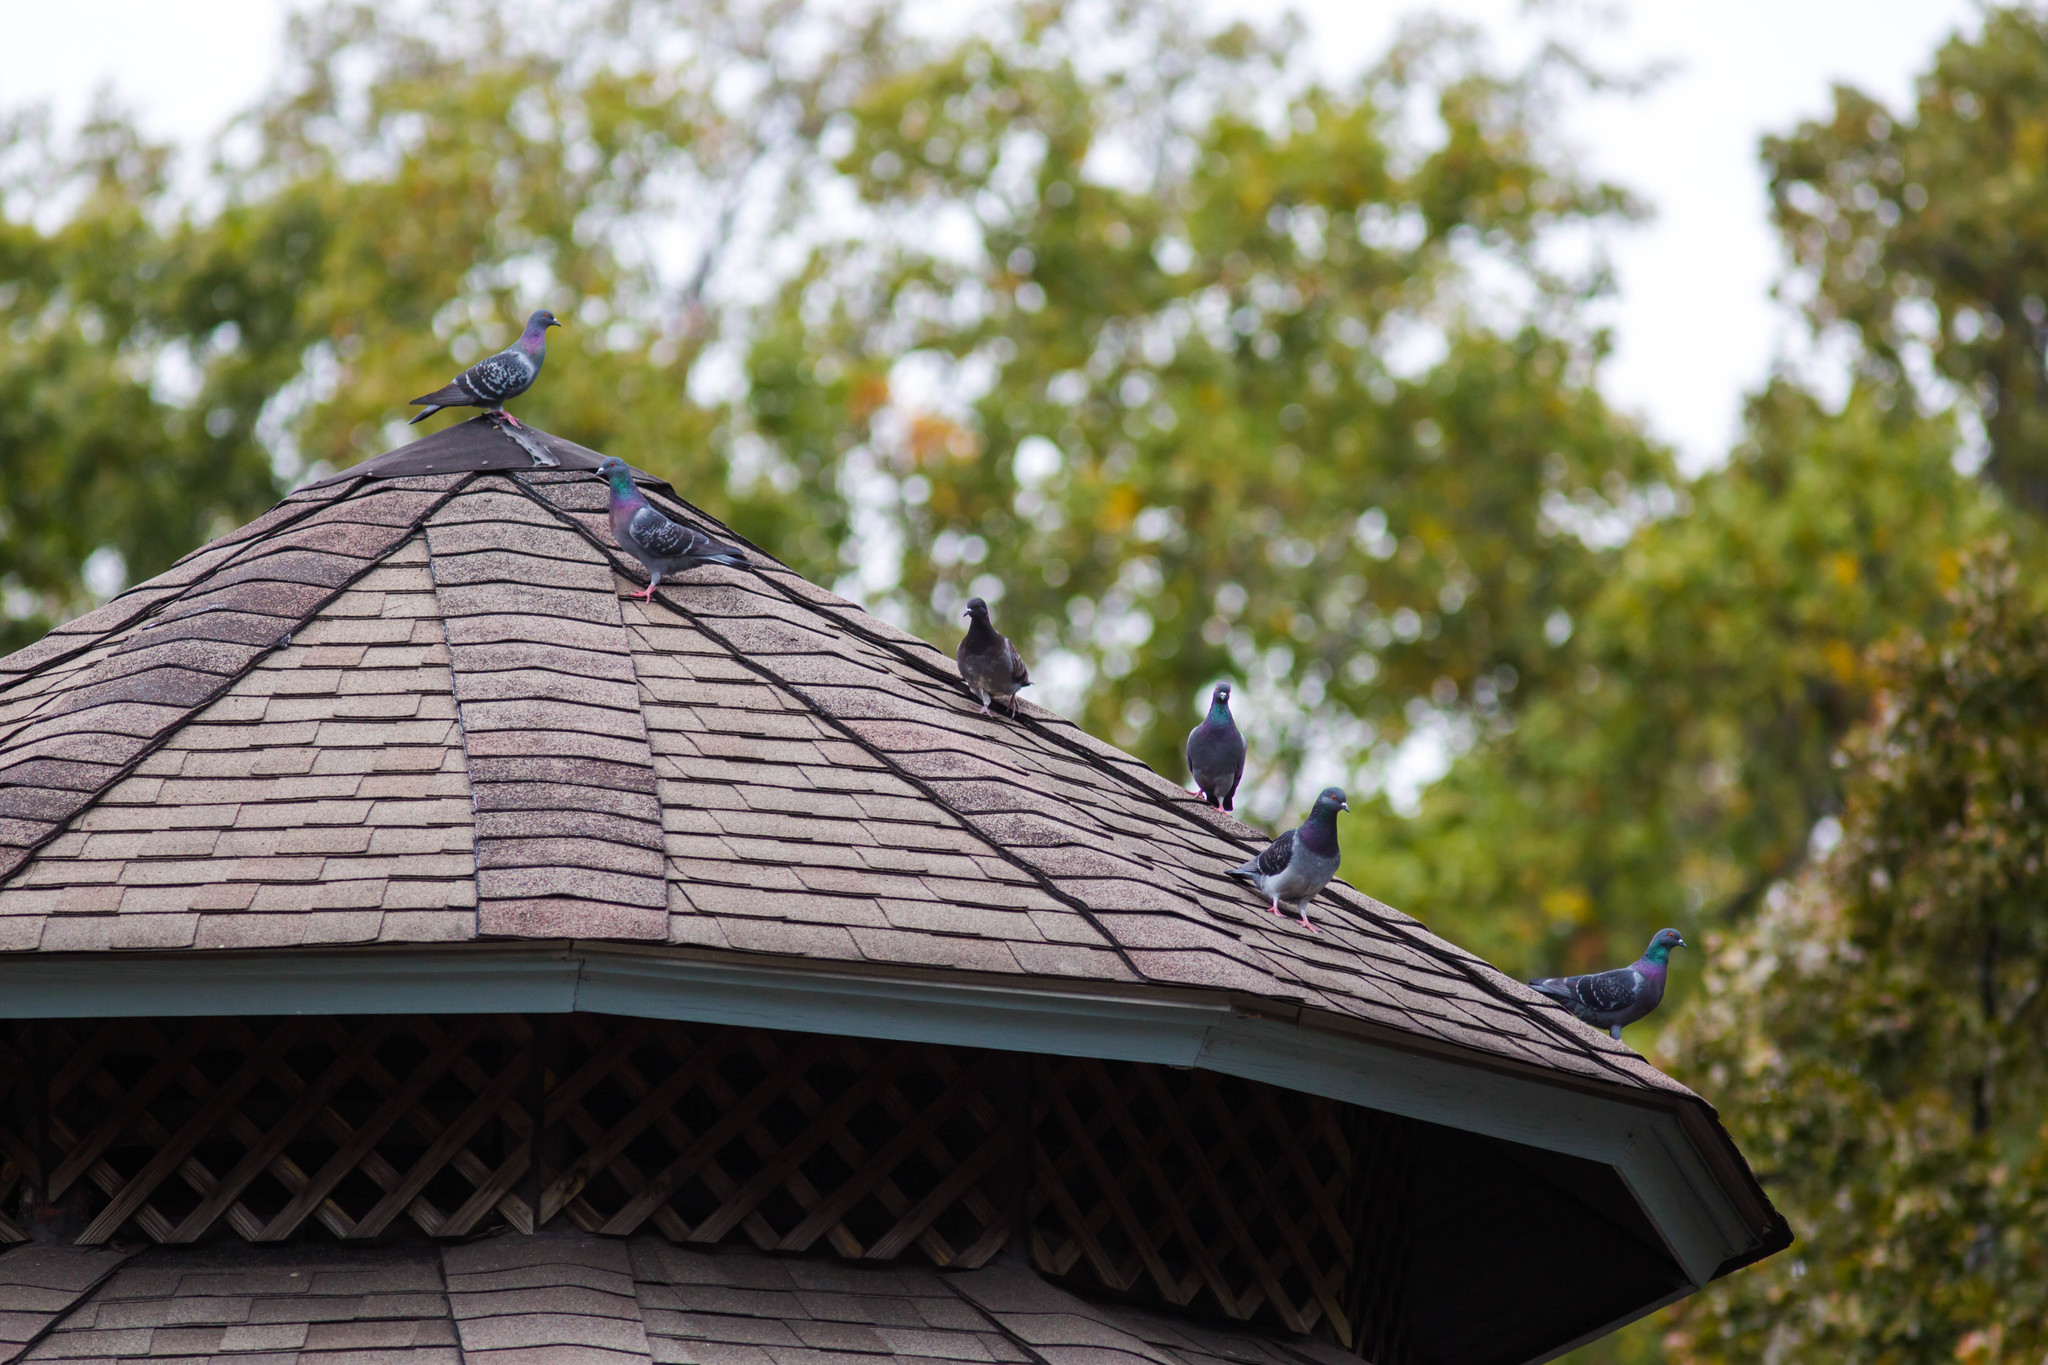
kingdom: Animalia
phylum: Chordata
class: Aves
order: Columbiformes
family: Columbidae
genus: Columba
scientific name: Columba livia
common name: Rock pigeon
